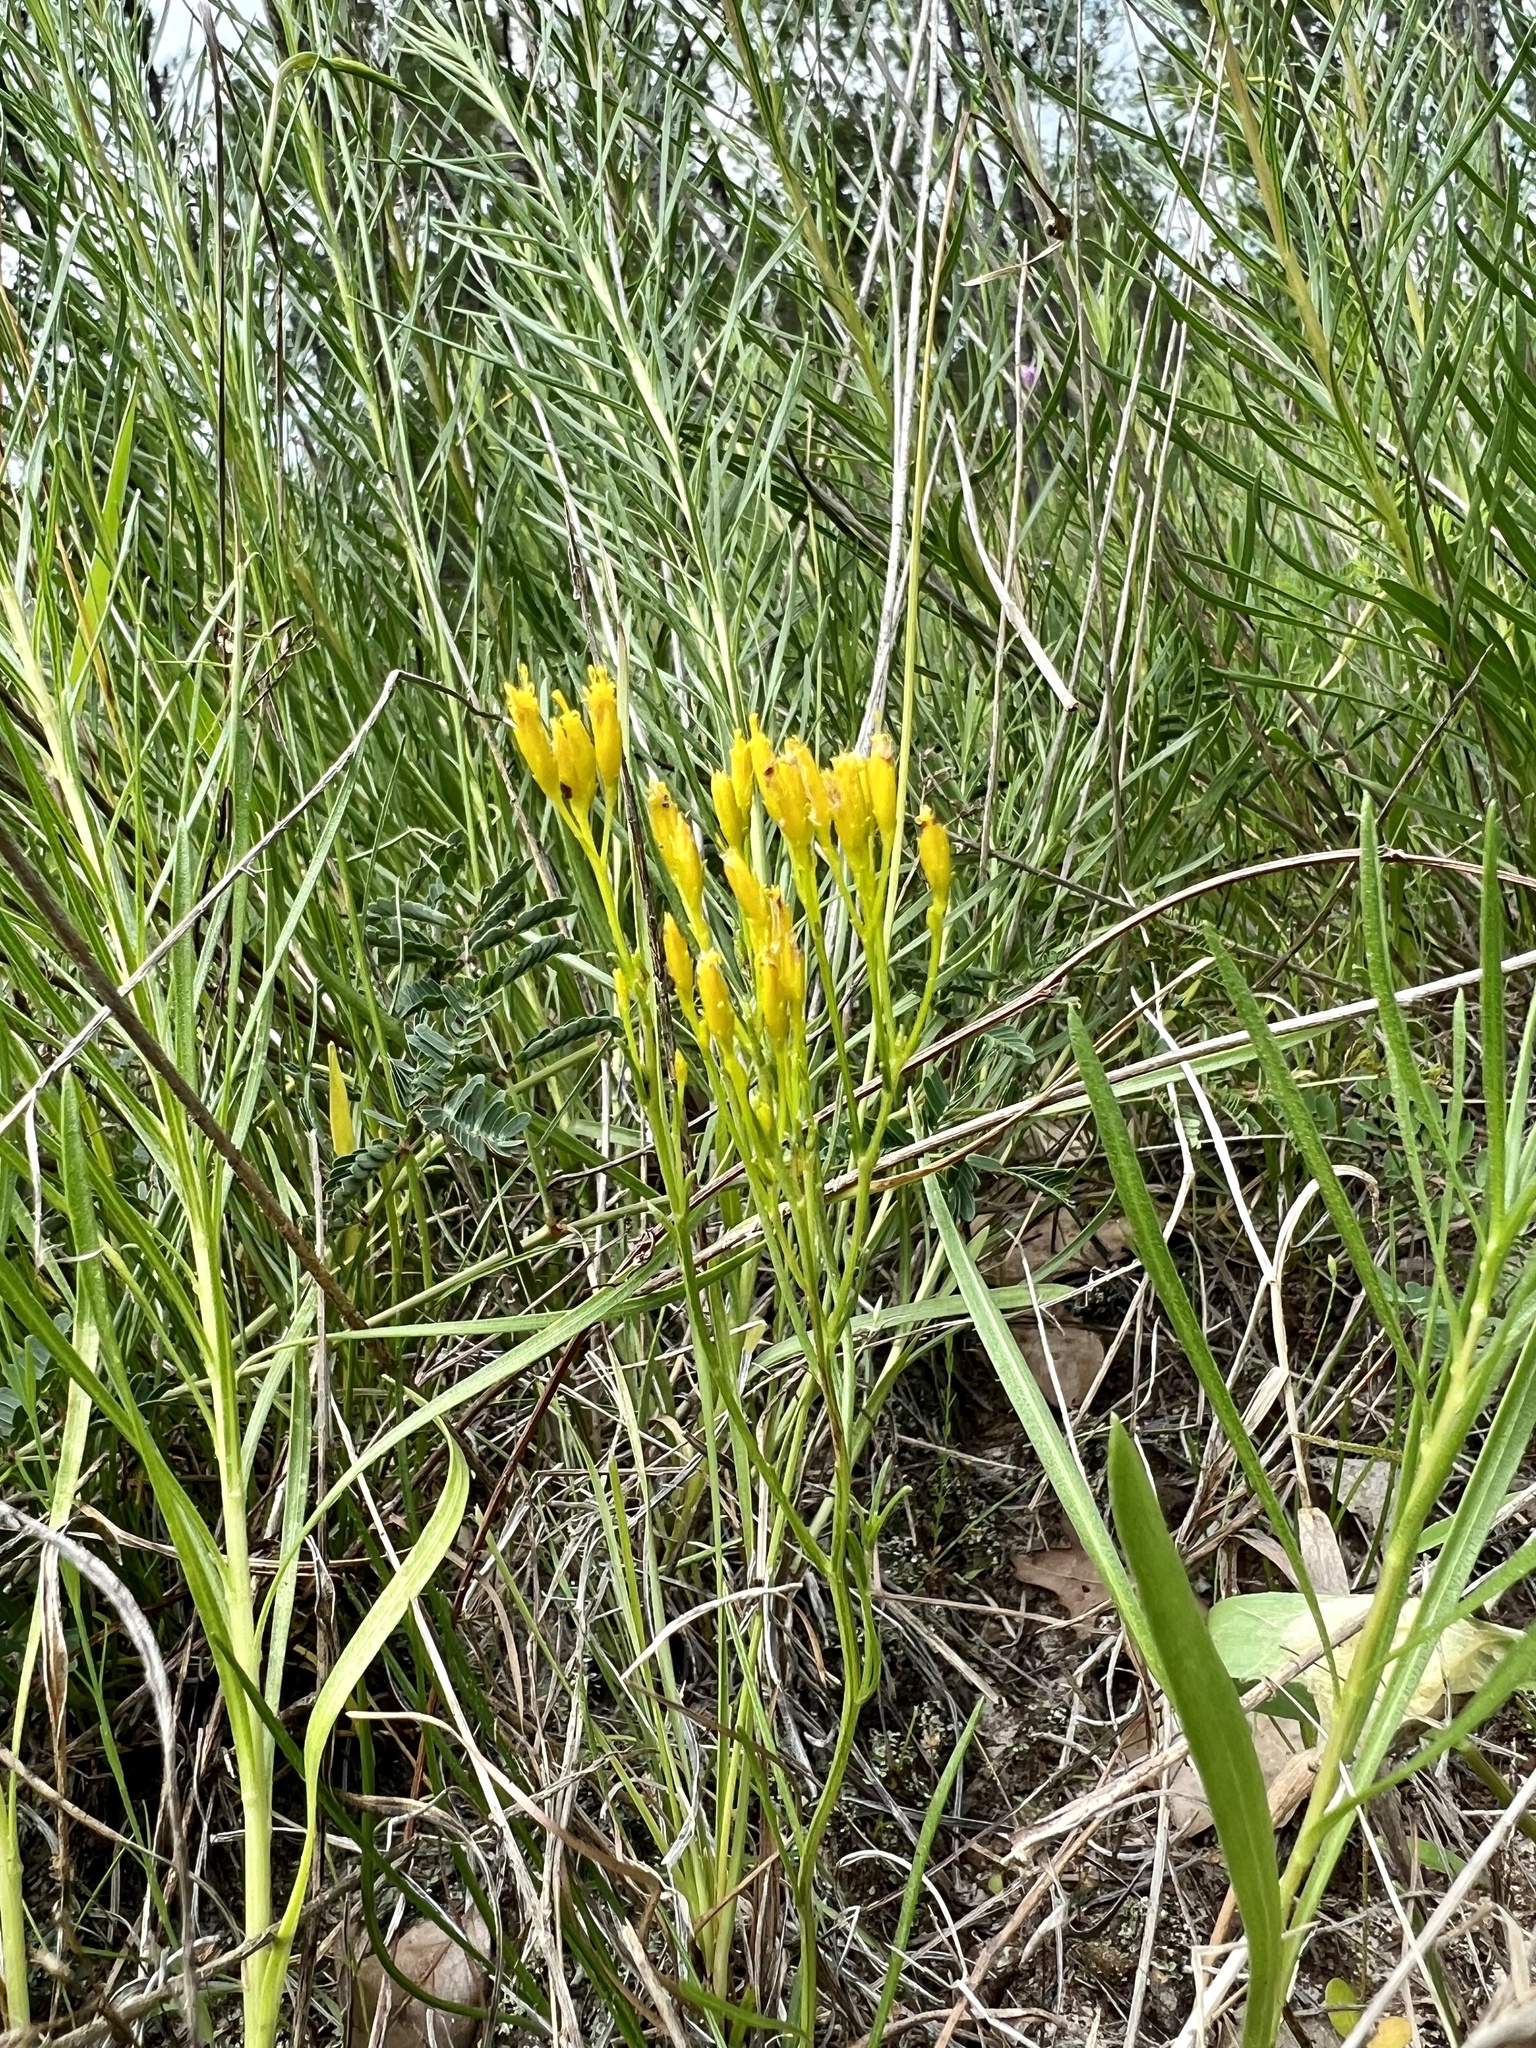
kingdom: Plantae
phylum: Tracheophyta
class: Magnoliopsida
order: Asterales
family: Asteraceae
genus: Bigelowia
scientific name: Bigelowia nuttallii
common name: Nuttall's rayless-goldenrod
